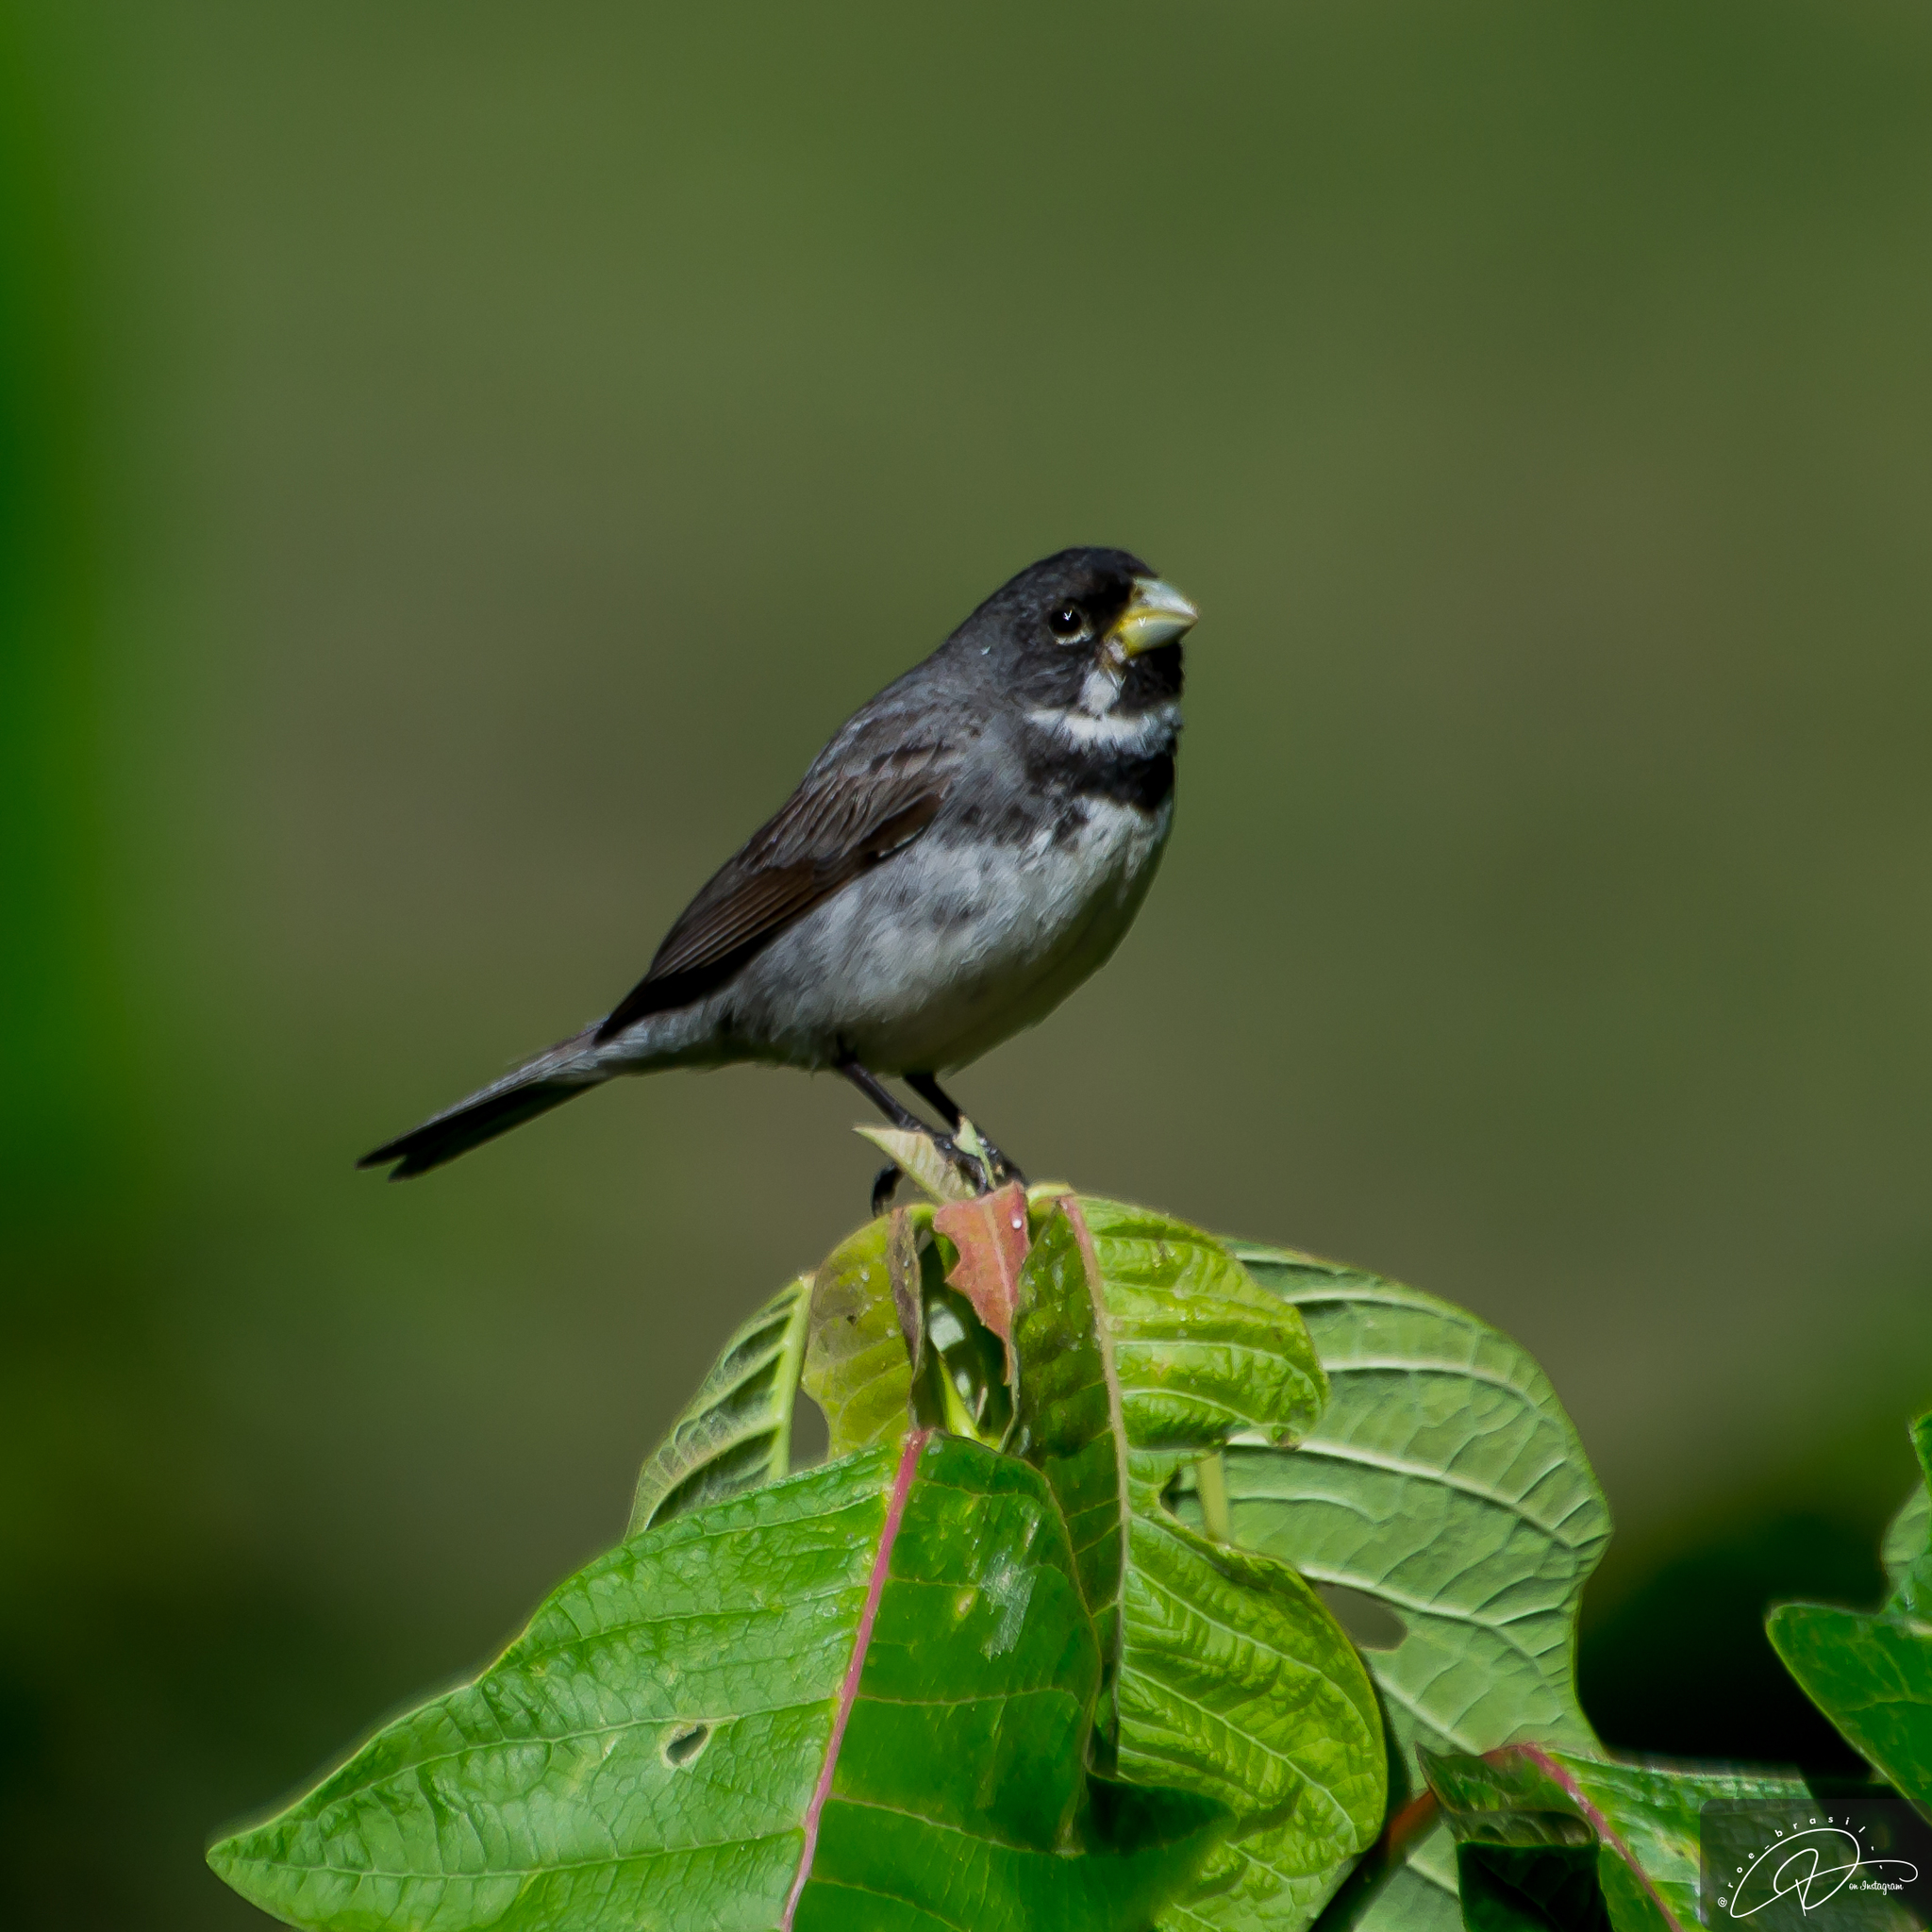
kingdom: Animalia
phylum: Chordata
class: Aves
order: Passeriformes
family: Thraupidae
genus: Sporophila
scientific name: Sporophila caerulescens
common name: Double-collared seedeater
